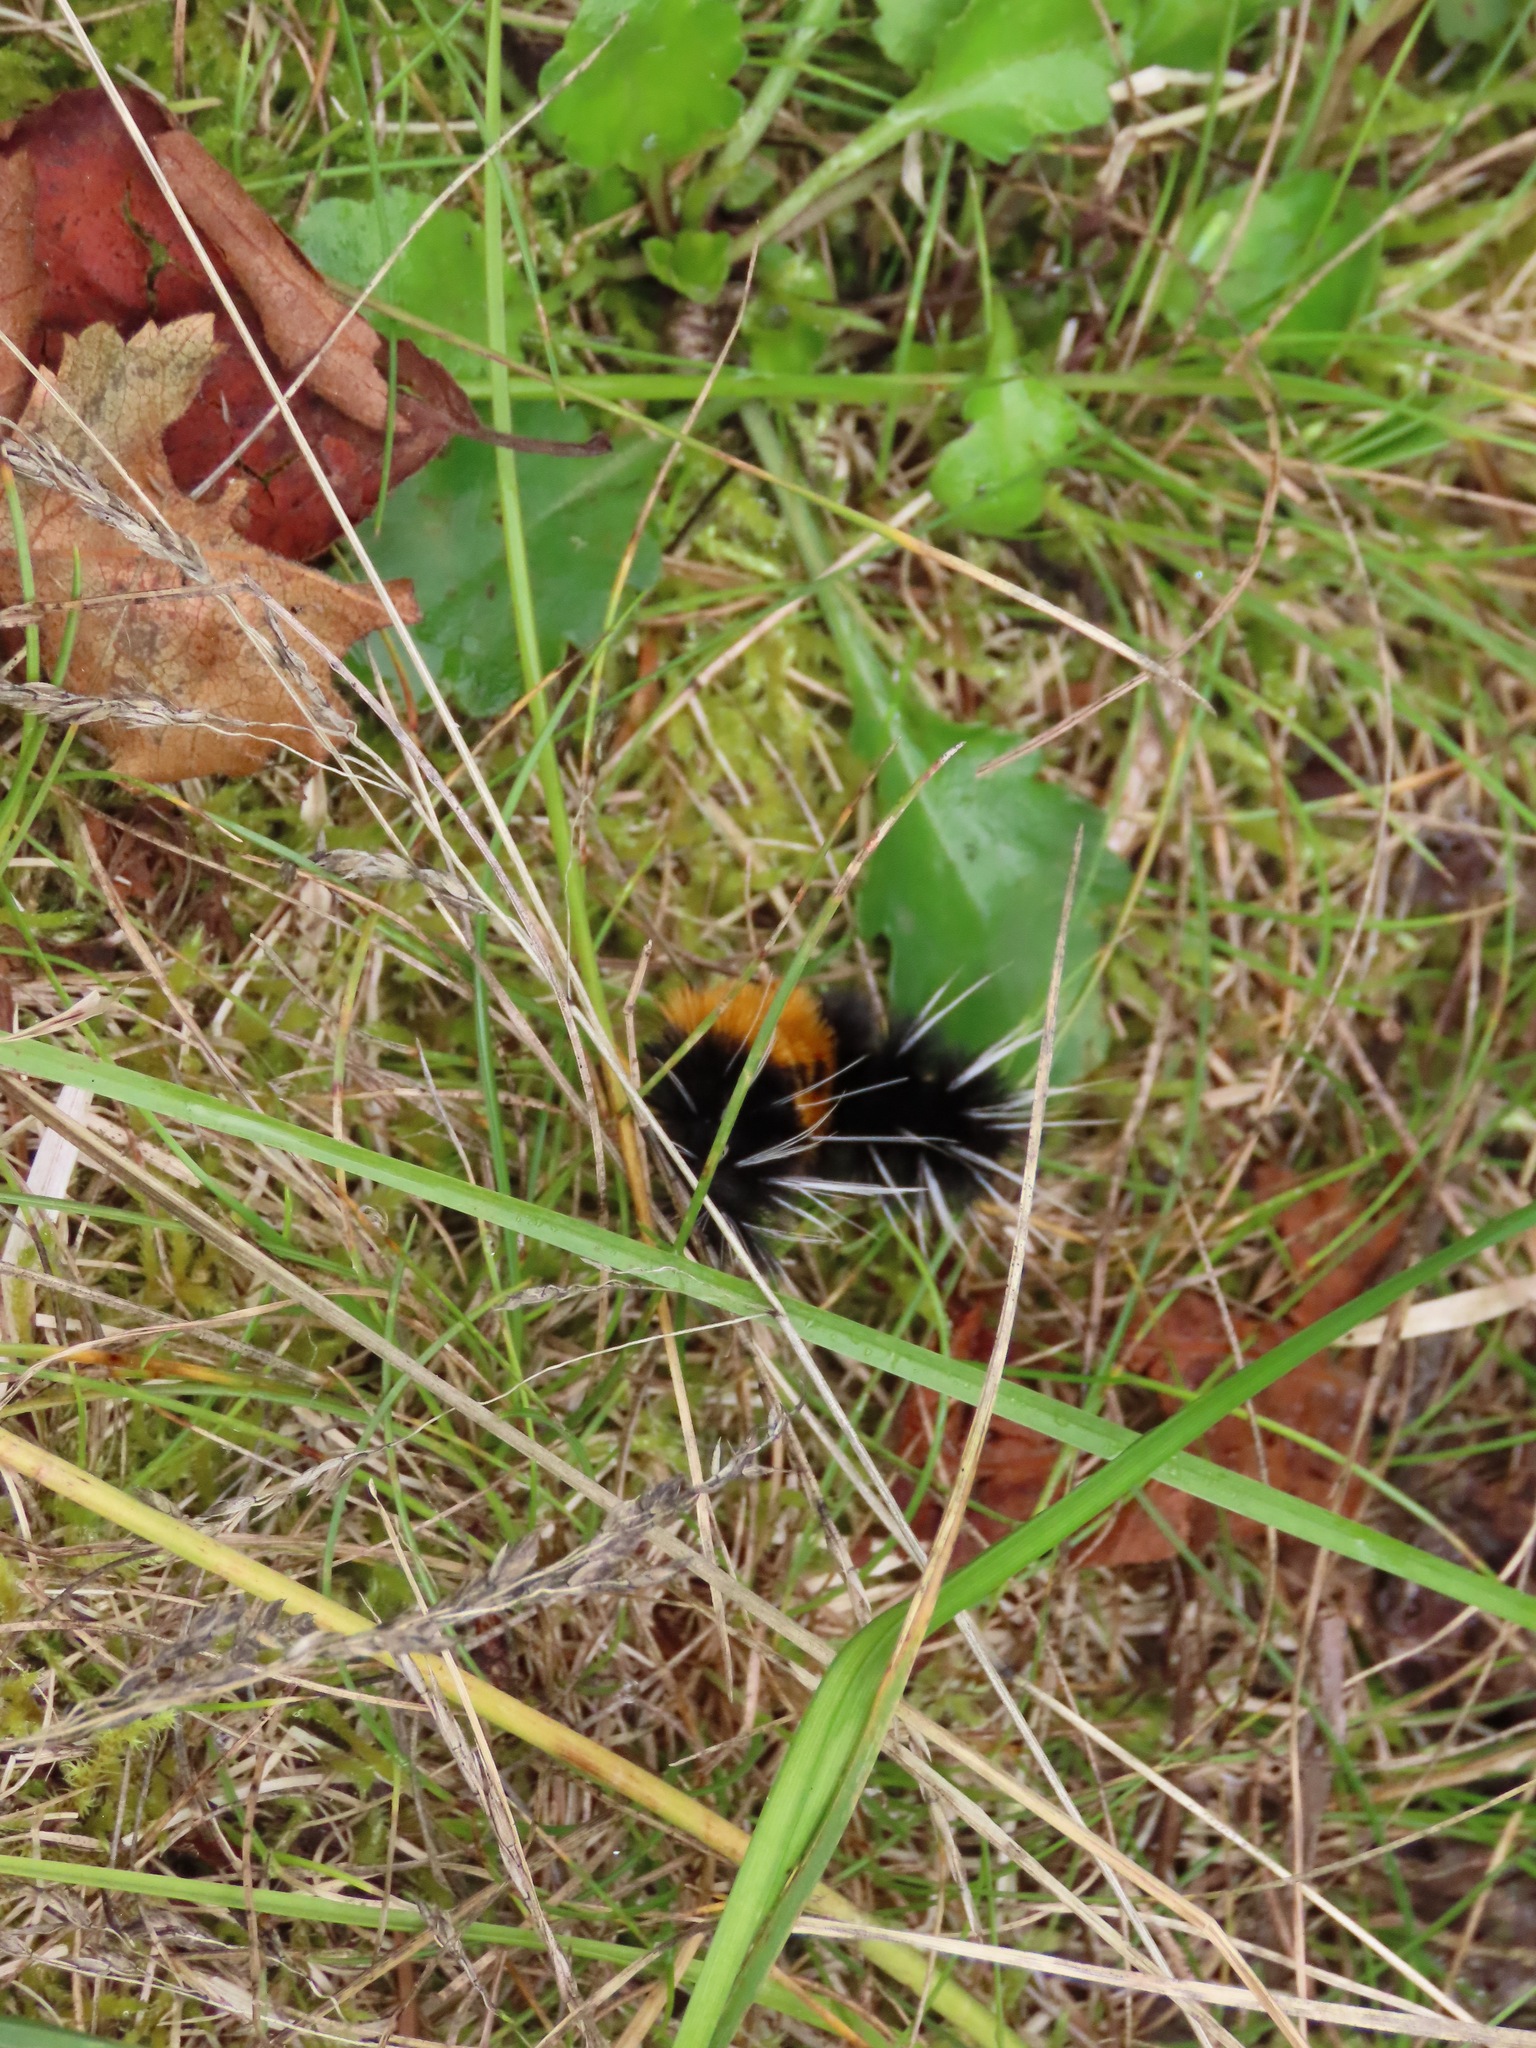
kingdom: Animalia
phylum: Arthropoda
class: Insecta
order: Lepidoptera
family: Erebidae
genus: Lophocampa
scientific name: Lophocampa maculata
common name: Spotted tussock moth
